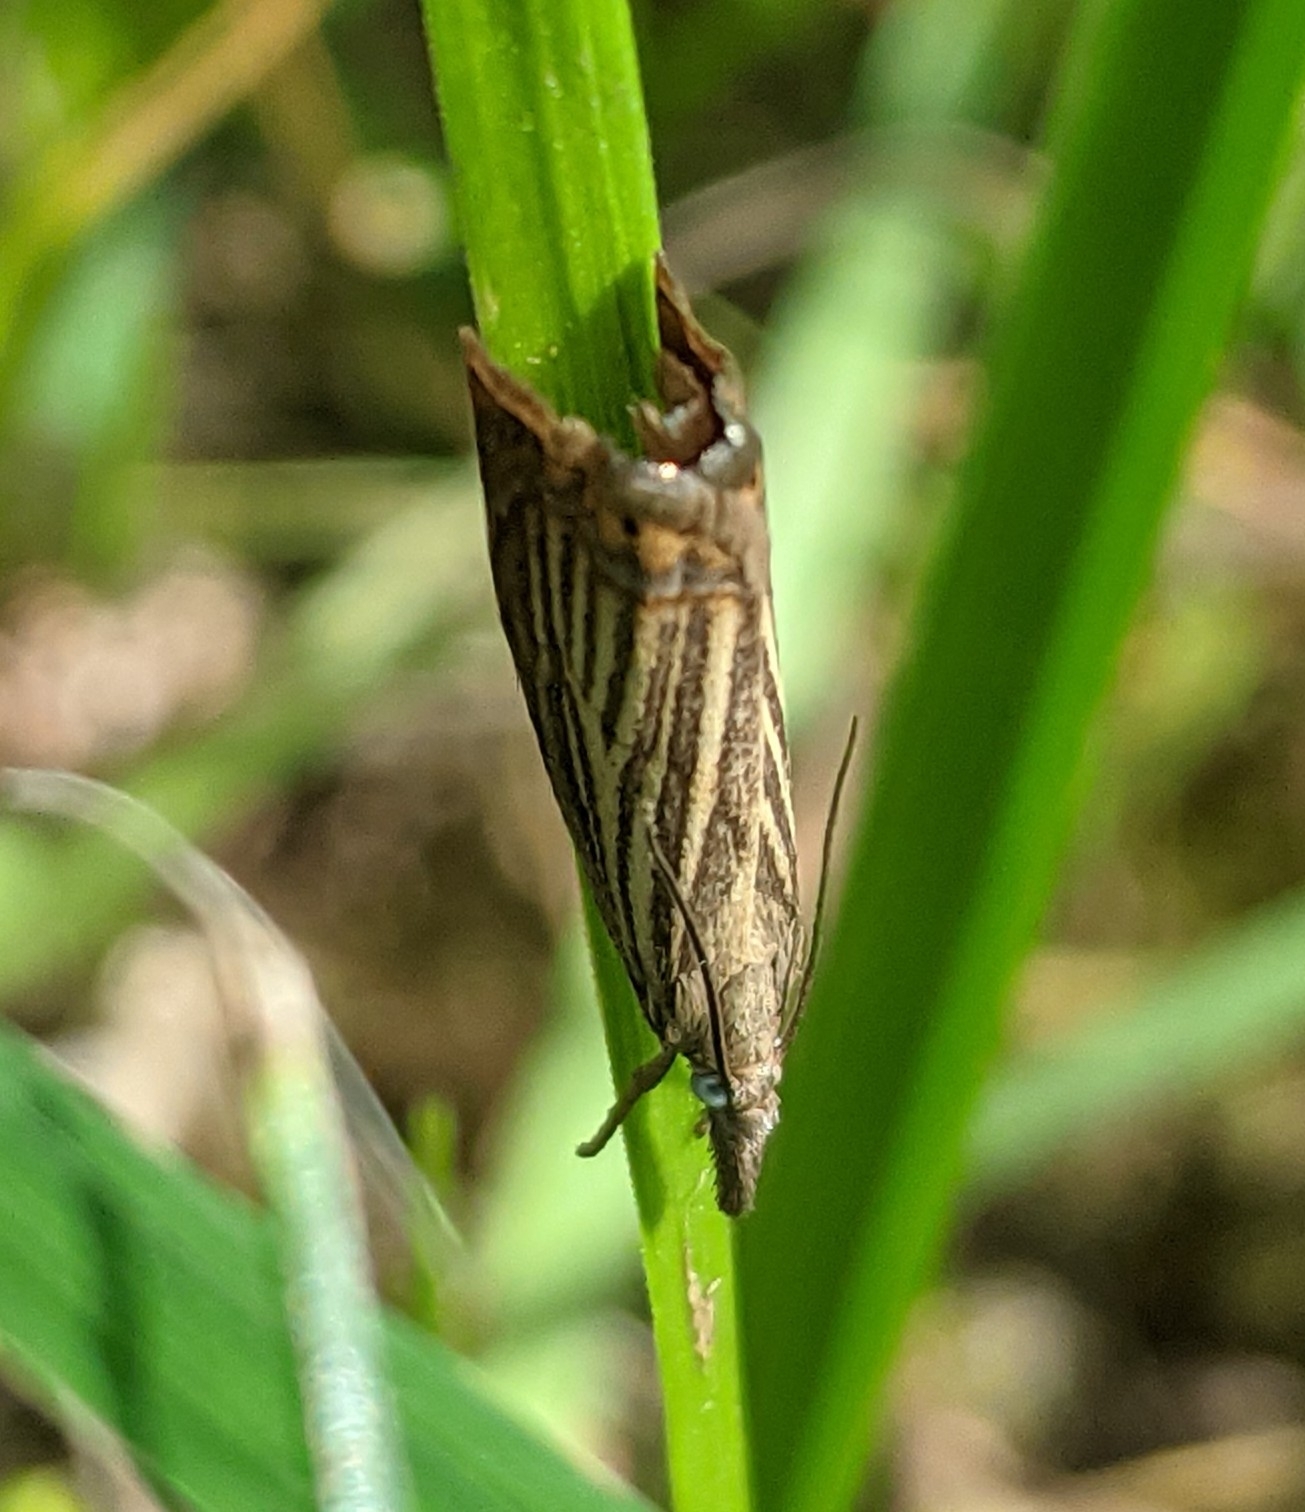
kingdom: Animalia
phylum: Arthropoda
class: Insecta
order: Lepidoptera
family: Crambidae
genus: Chrysoteuchia
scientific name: Chrysoteuchia culmella
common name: Garden grass-veneer
